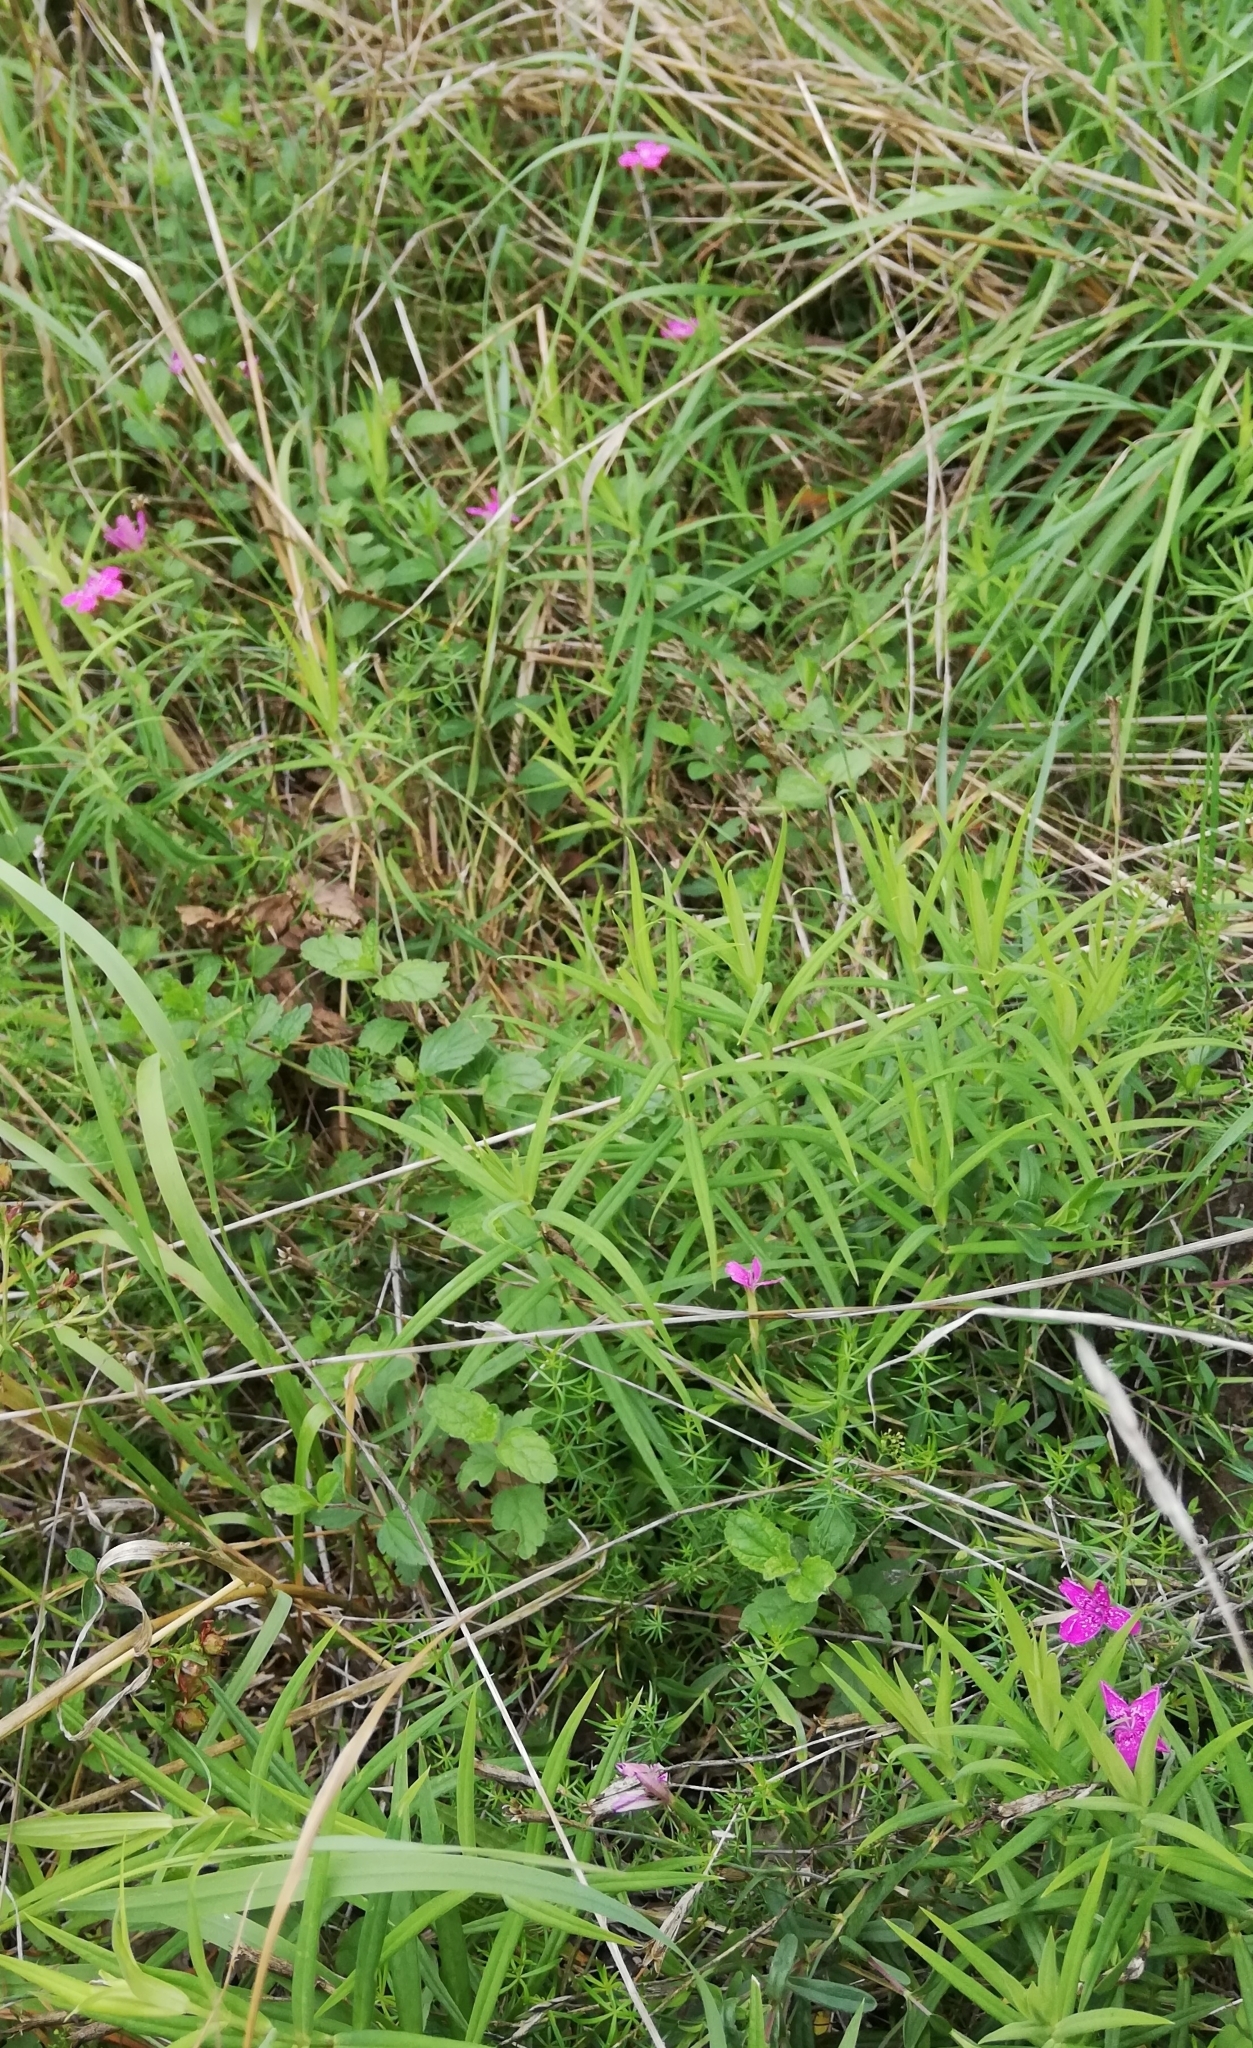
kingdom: Plantae
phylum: Tracheophyta
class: Magnoliopsida
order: Caryophyllales
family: Caryophyllaceae
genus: Dianthus
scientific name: Dianthus deltoides
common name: Maiden pink
